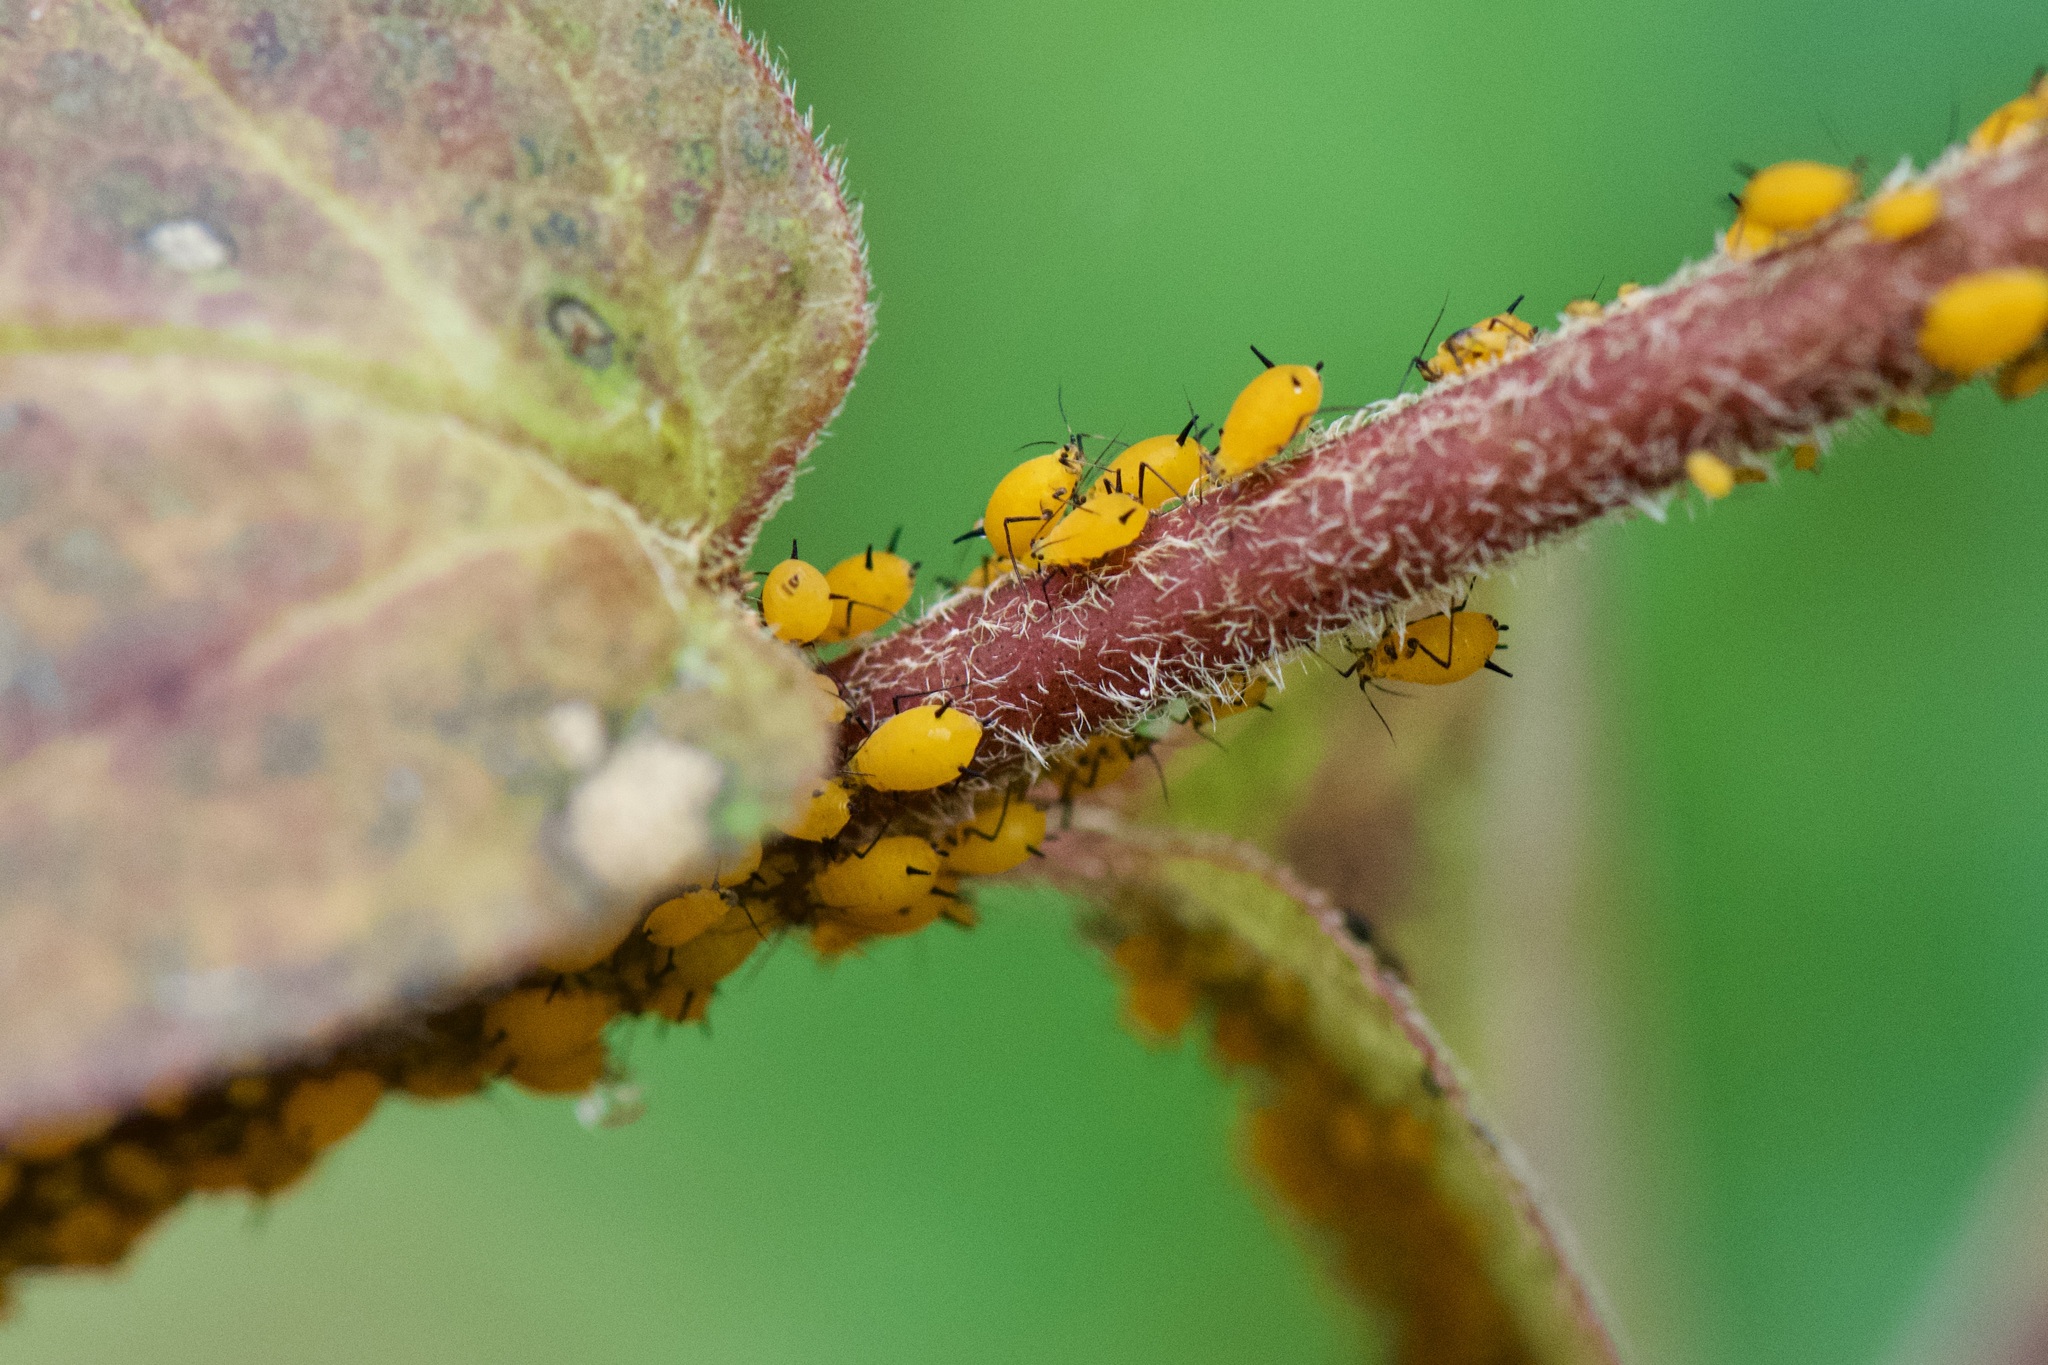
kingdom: Animalia
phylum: Arthropoda
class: Insecta
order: Hemiptera
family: Aphididae
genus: Aphis
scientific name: Aphis nerii
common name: Oleander aphid
